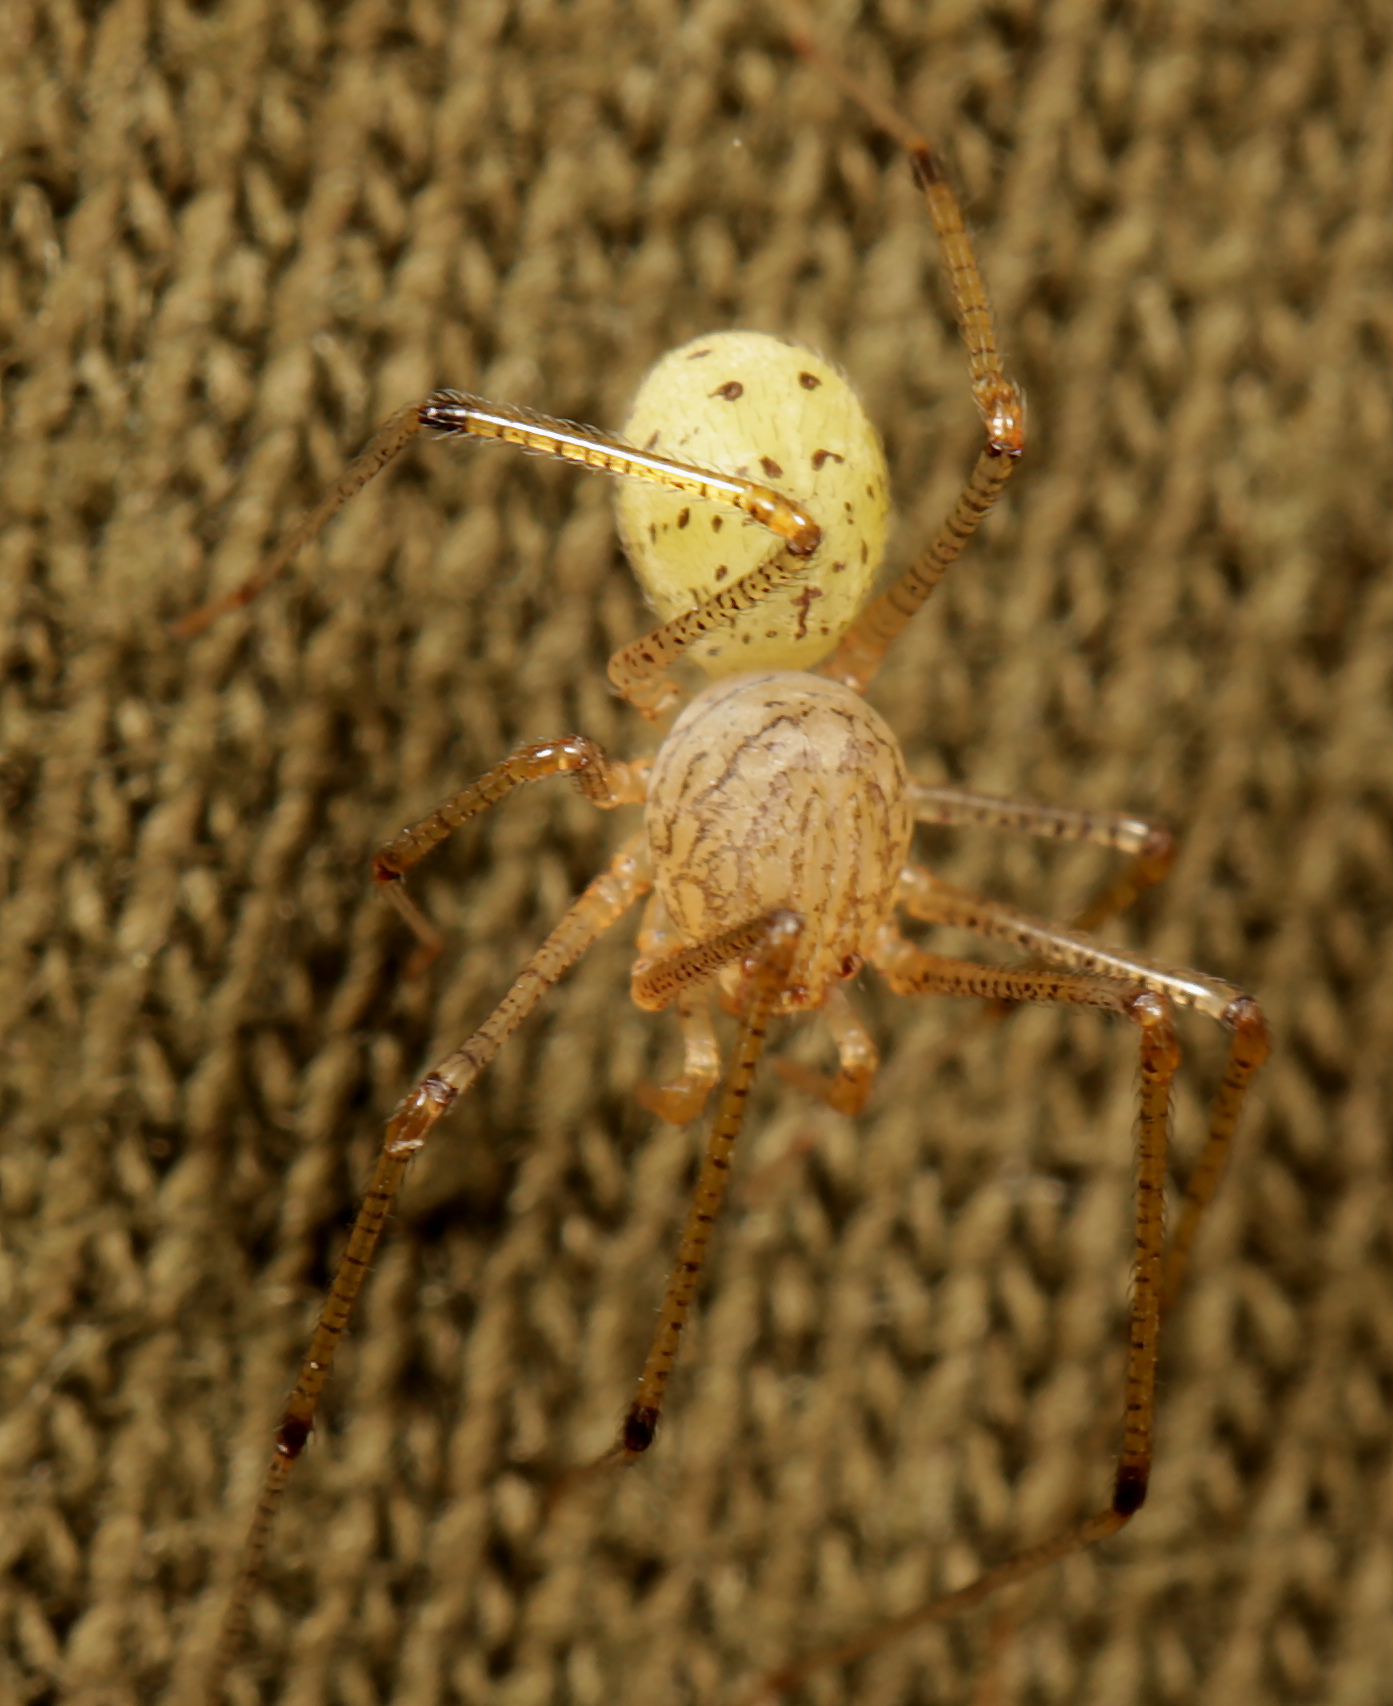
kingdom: Animalia
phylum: Arthropoda
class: Arachnida
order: Araneae
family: Scytodidae
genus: Scytodes
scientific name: Scytodes maritima
